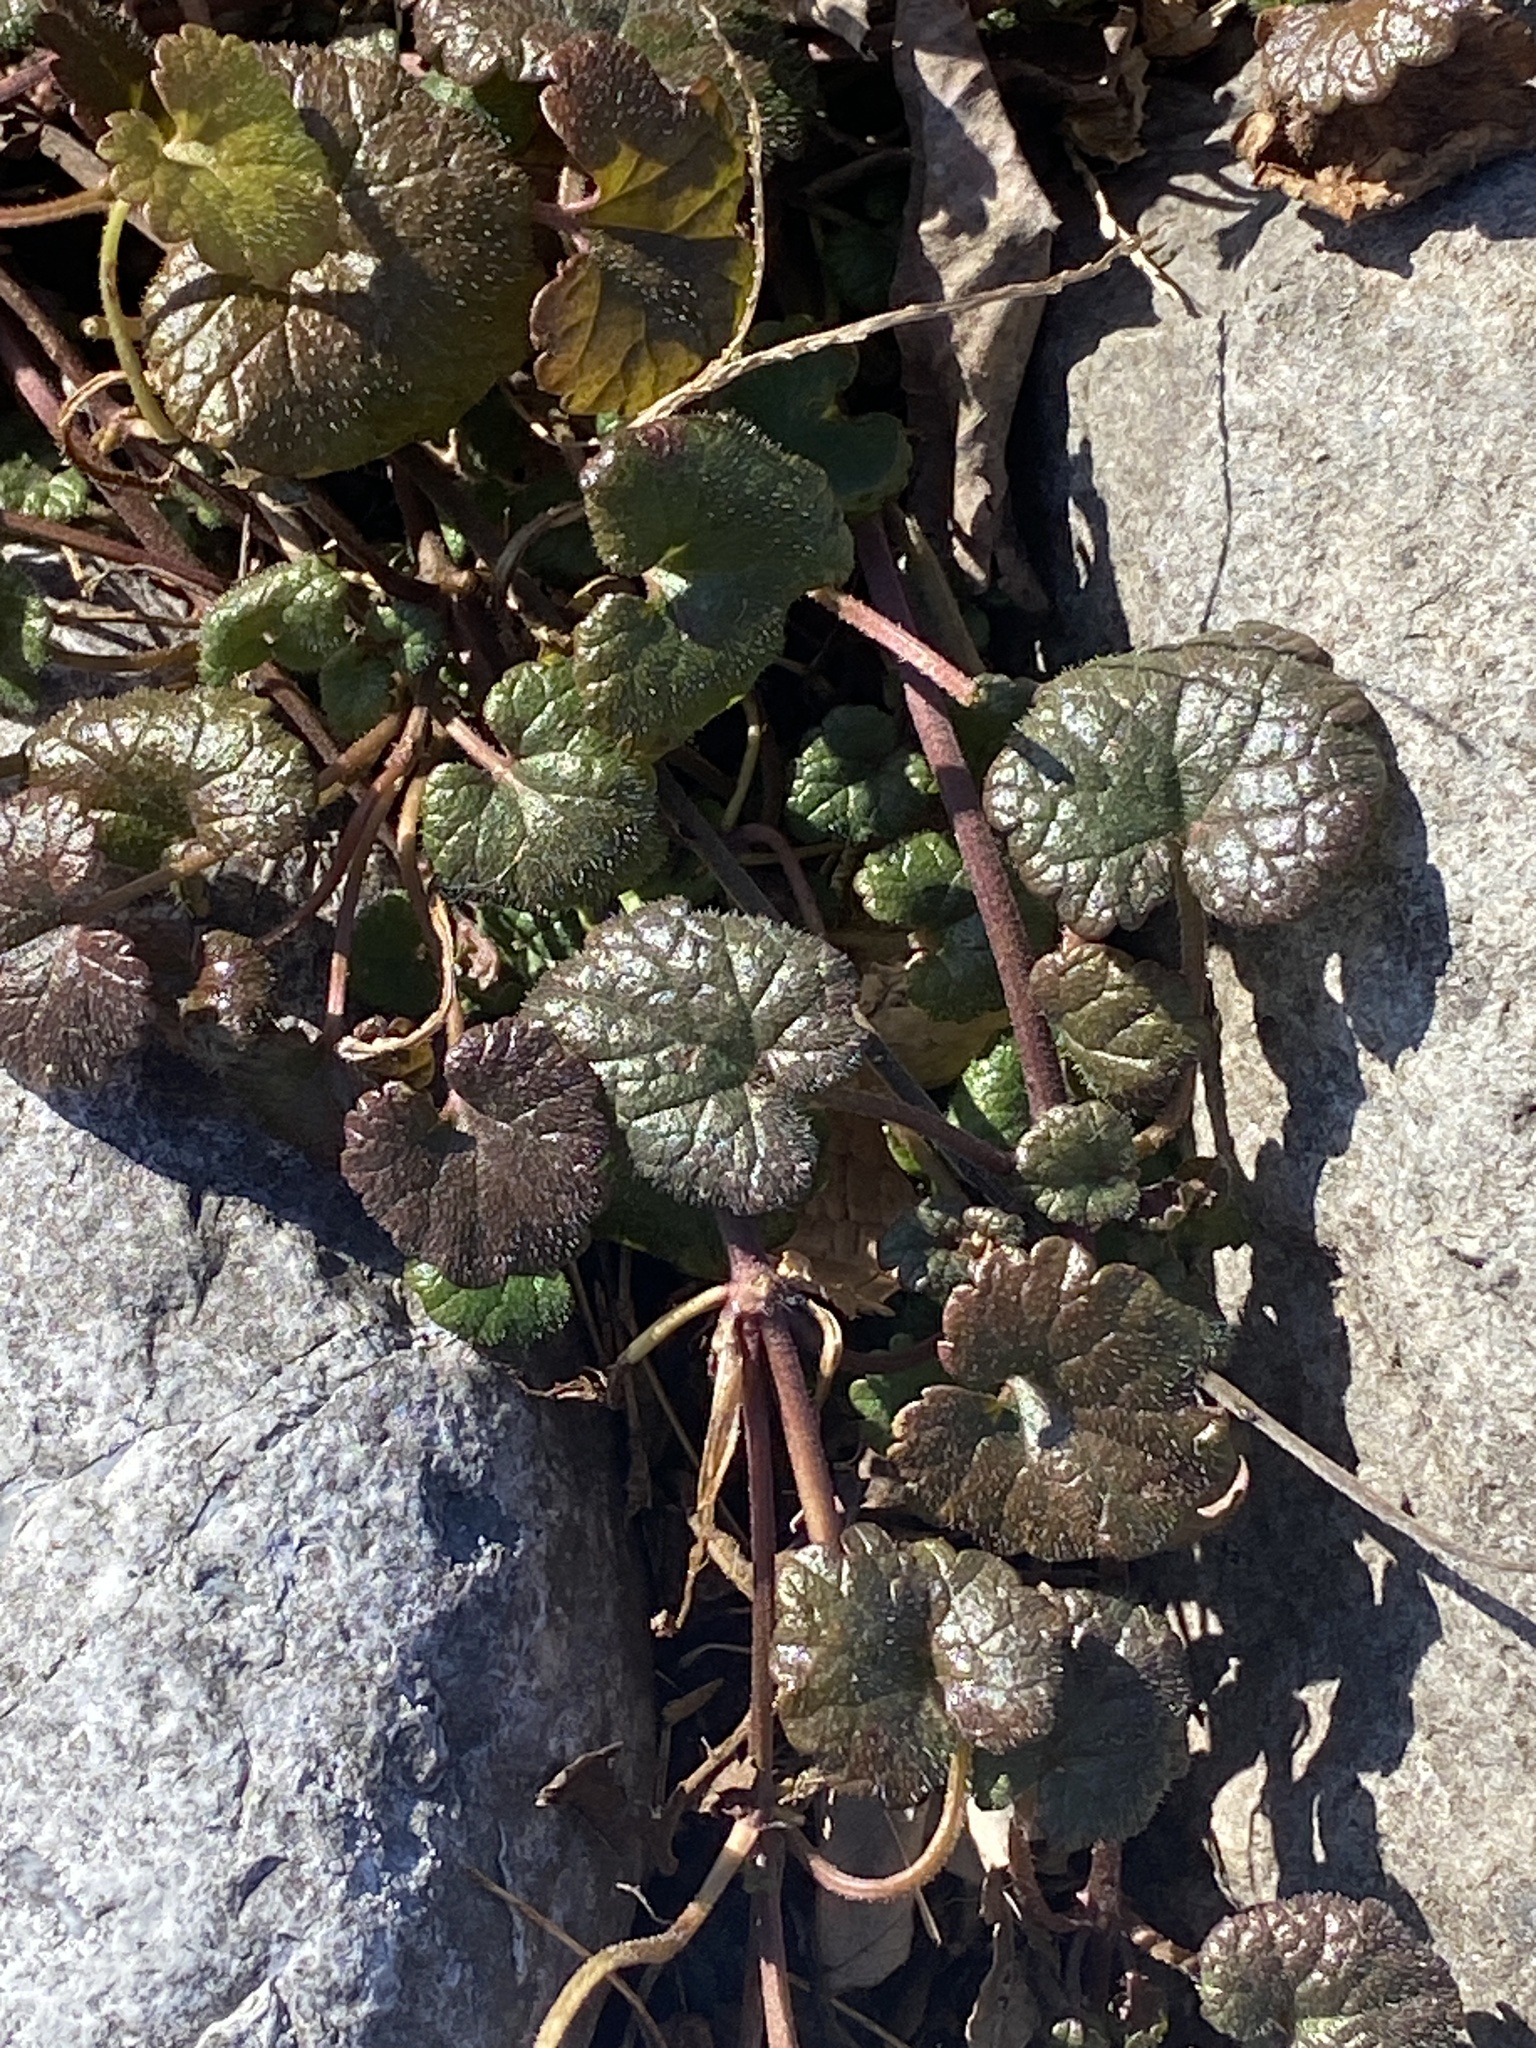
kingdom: Plantae
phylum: Tracheophyta
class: Magnoliopsida
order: Lamiales
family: Lamiaceae
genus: Glechoma
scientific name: Glechoma hederacea
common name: Ground ivy
